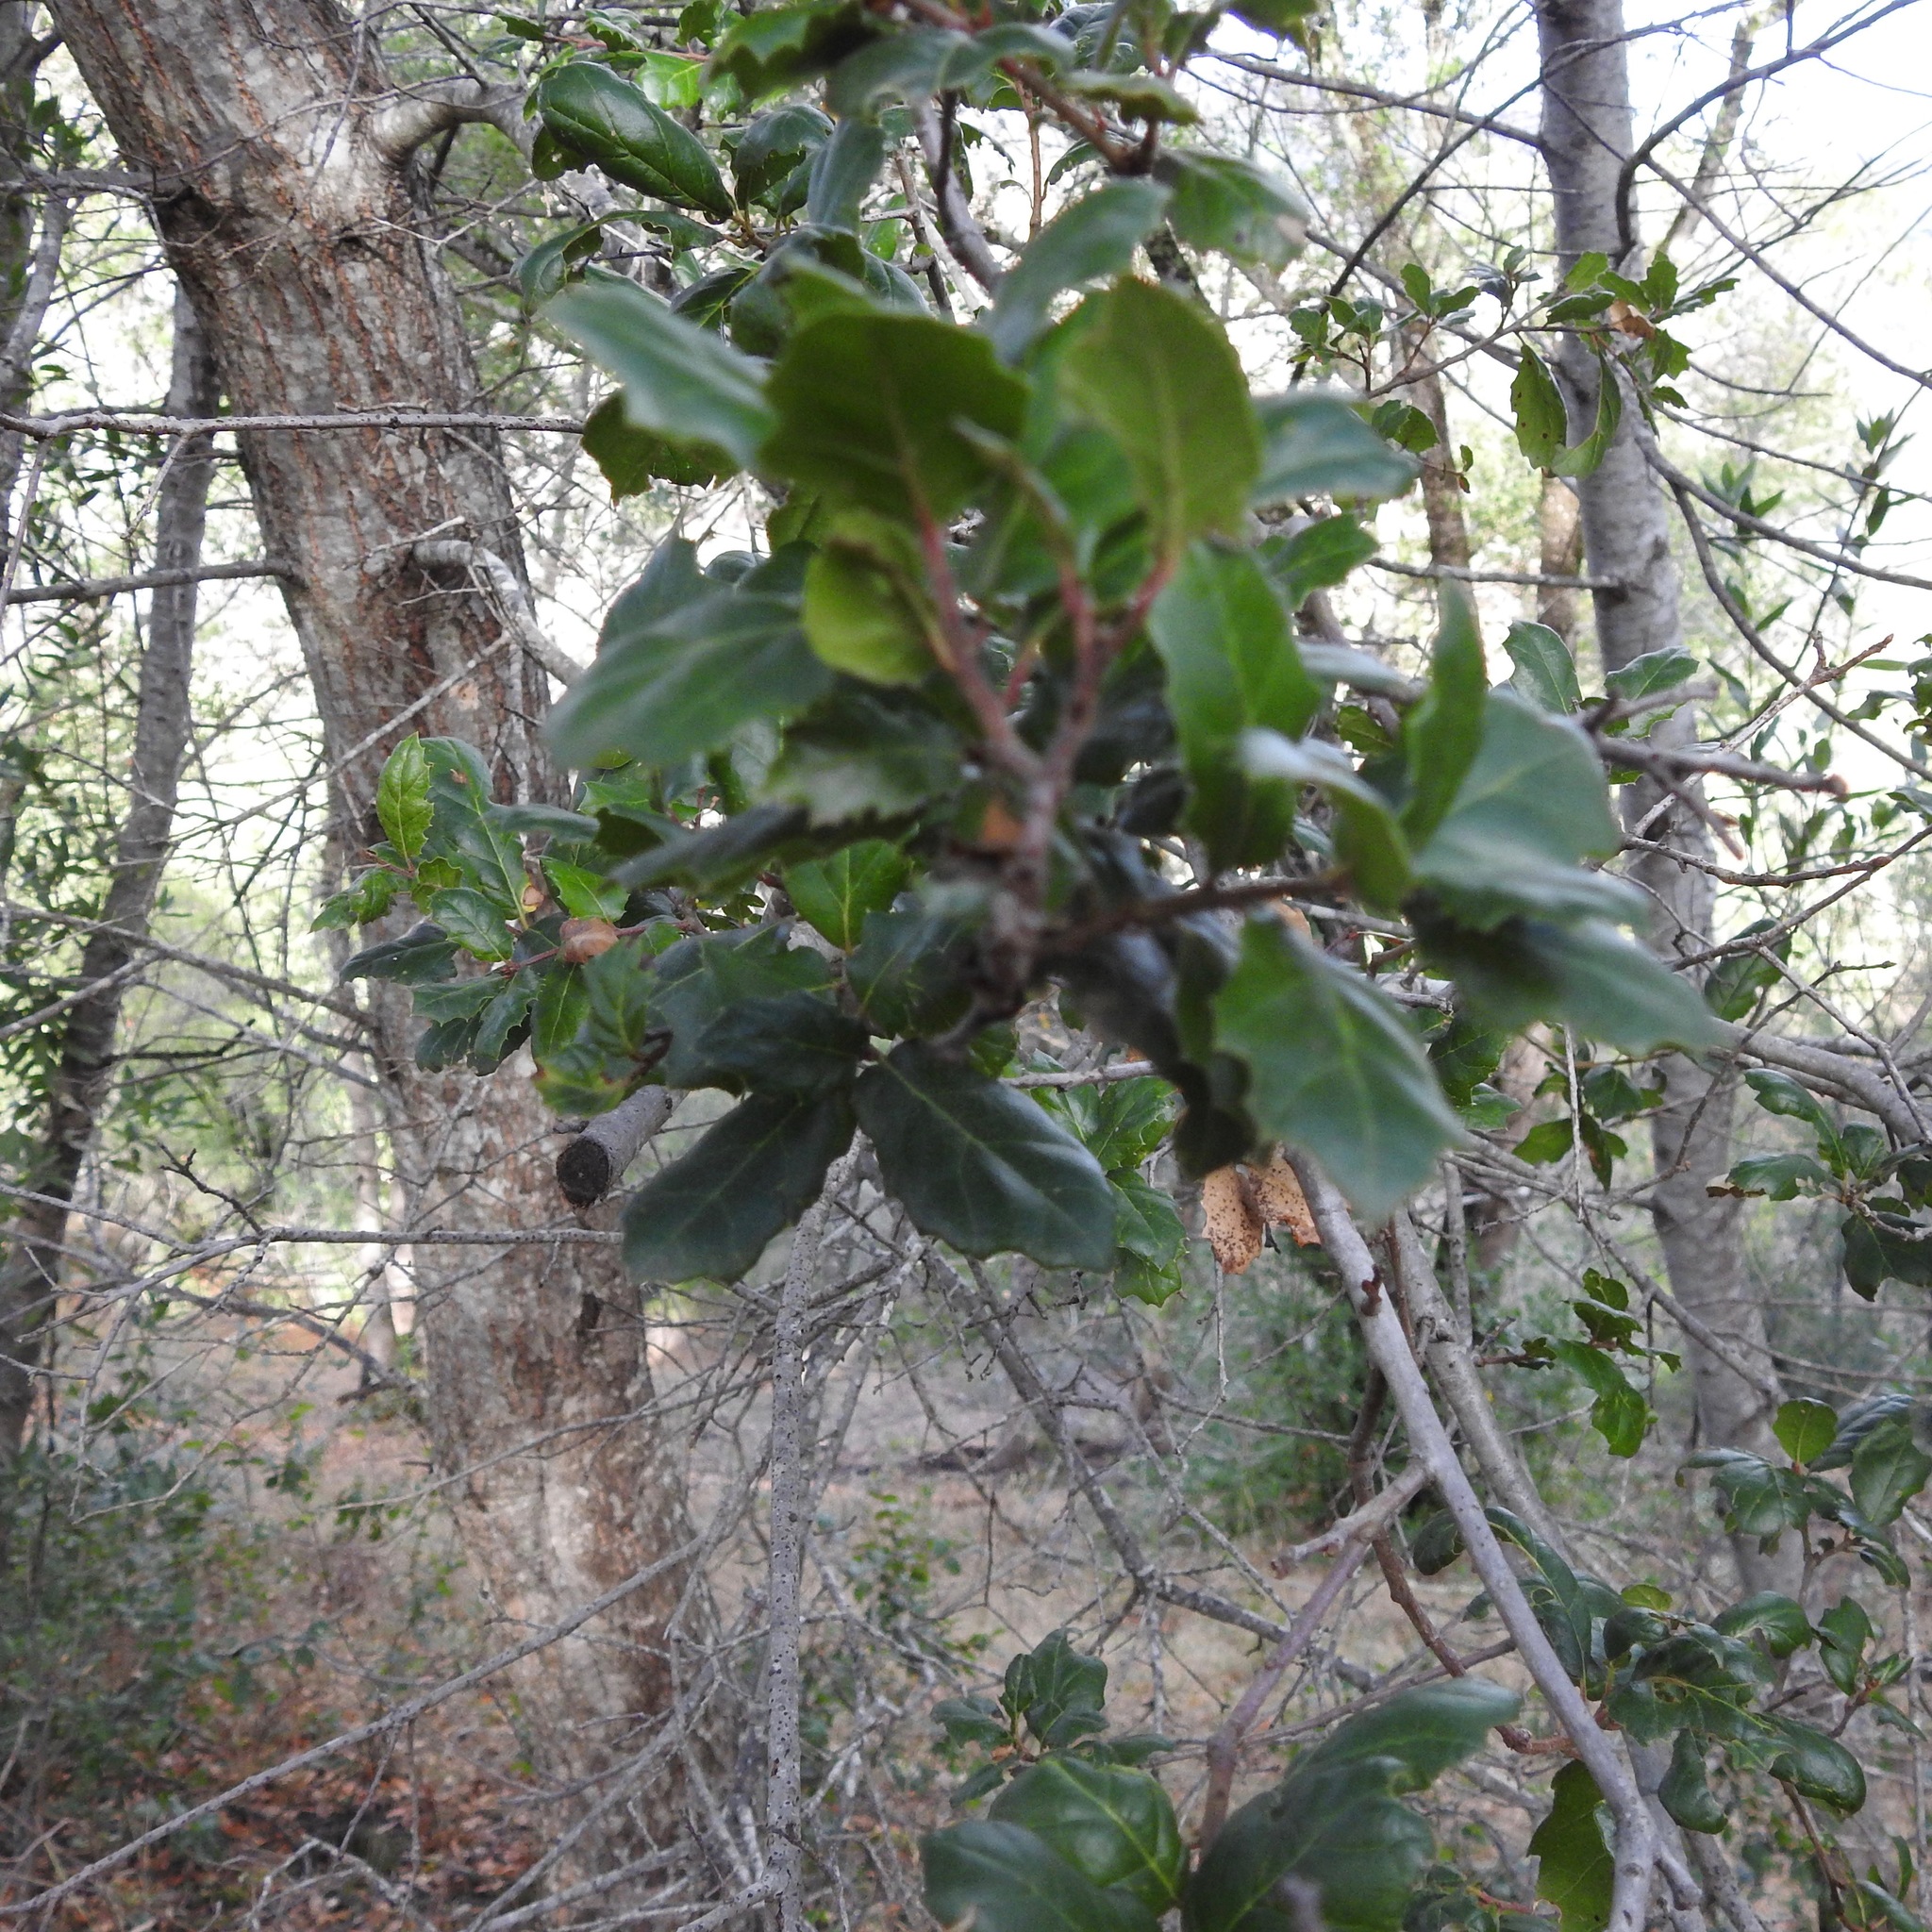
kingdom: Plantae
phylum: Tracheophyta
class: Magnoliopsida
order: Fagales
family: Fagaceae
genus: Quercus
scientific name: Quercus agrifolia
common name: California live oak
